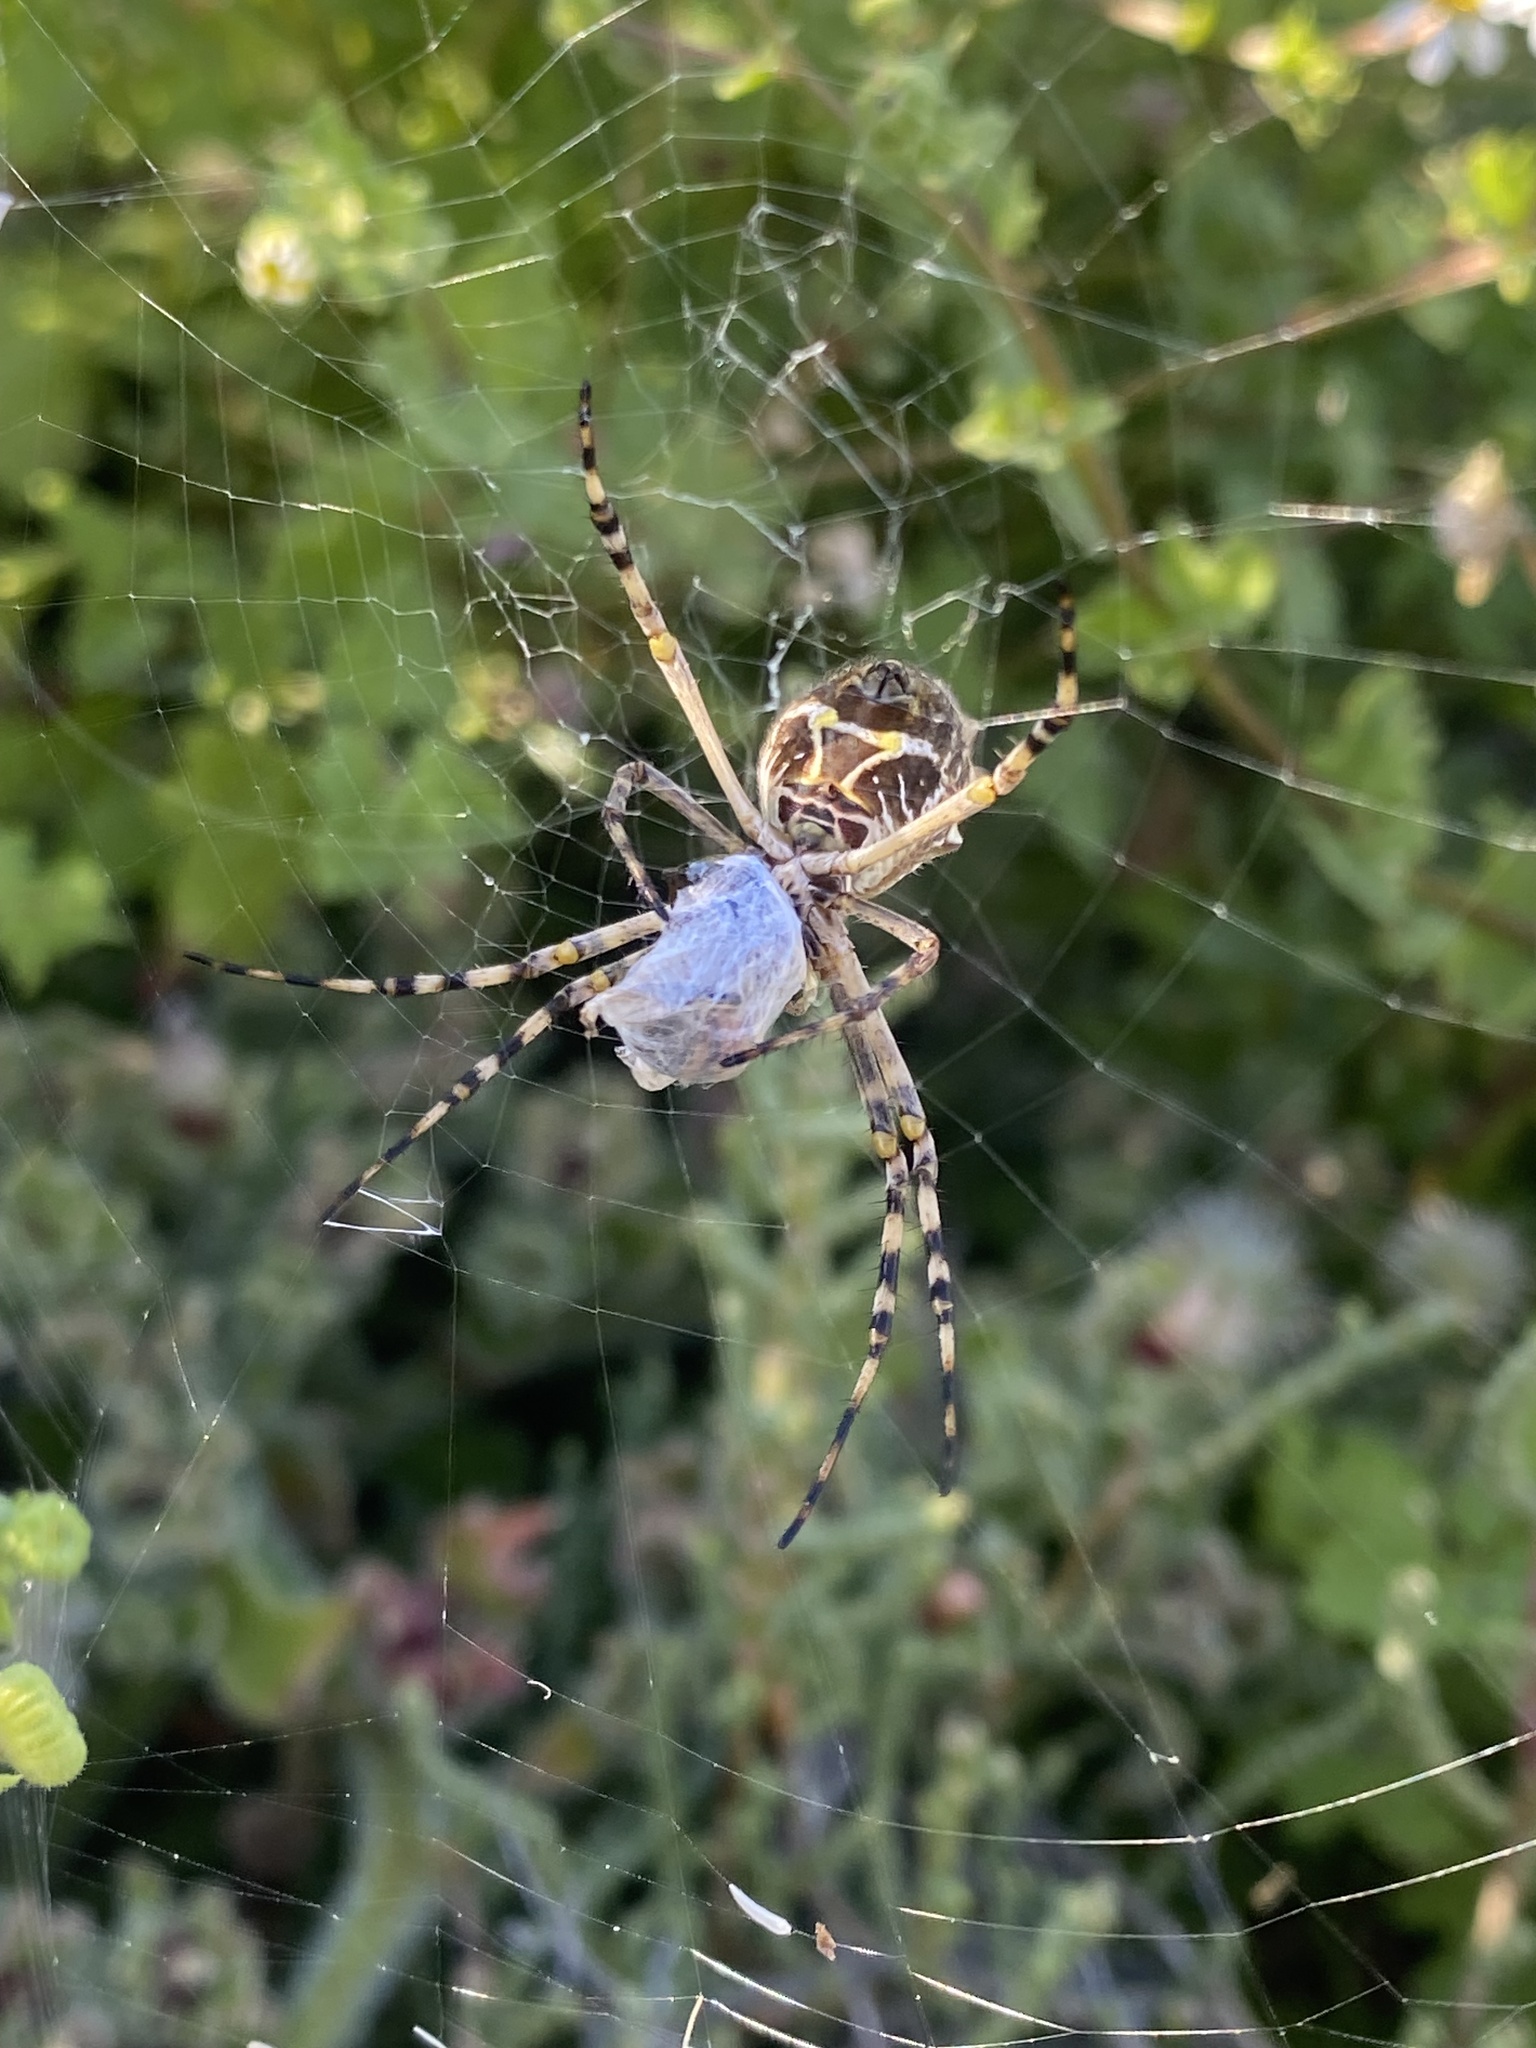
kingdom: Animalia
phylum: Arthropoda
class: Arachnida
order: Araneae
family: Araneidae
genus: Argiope
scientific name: Argiope argentata
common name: Orb weavers
